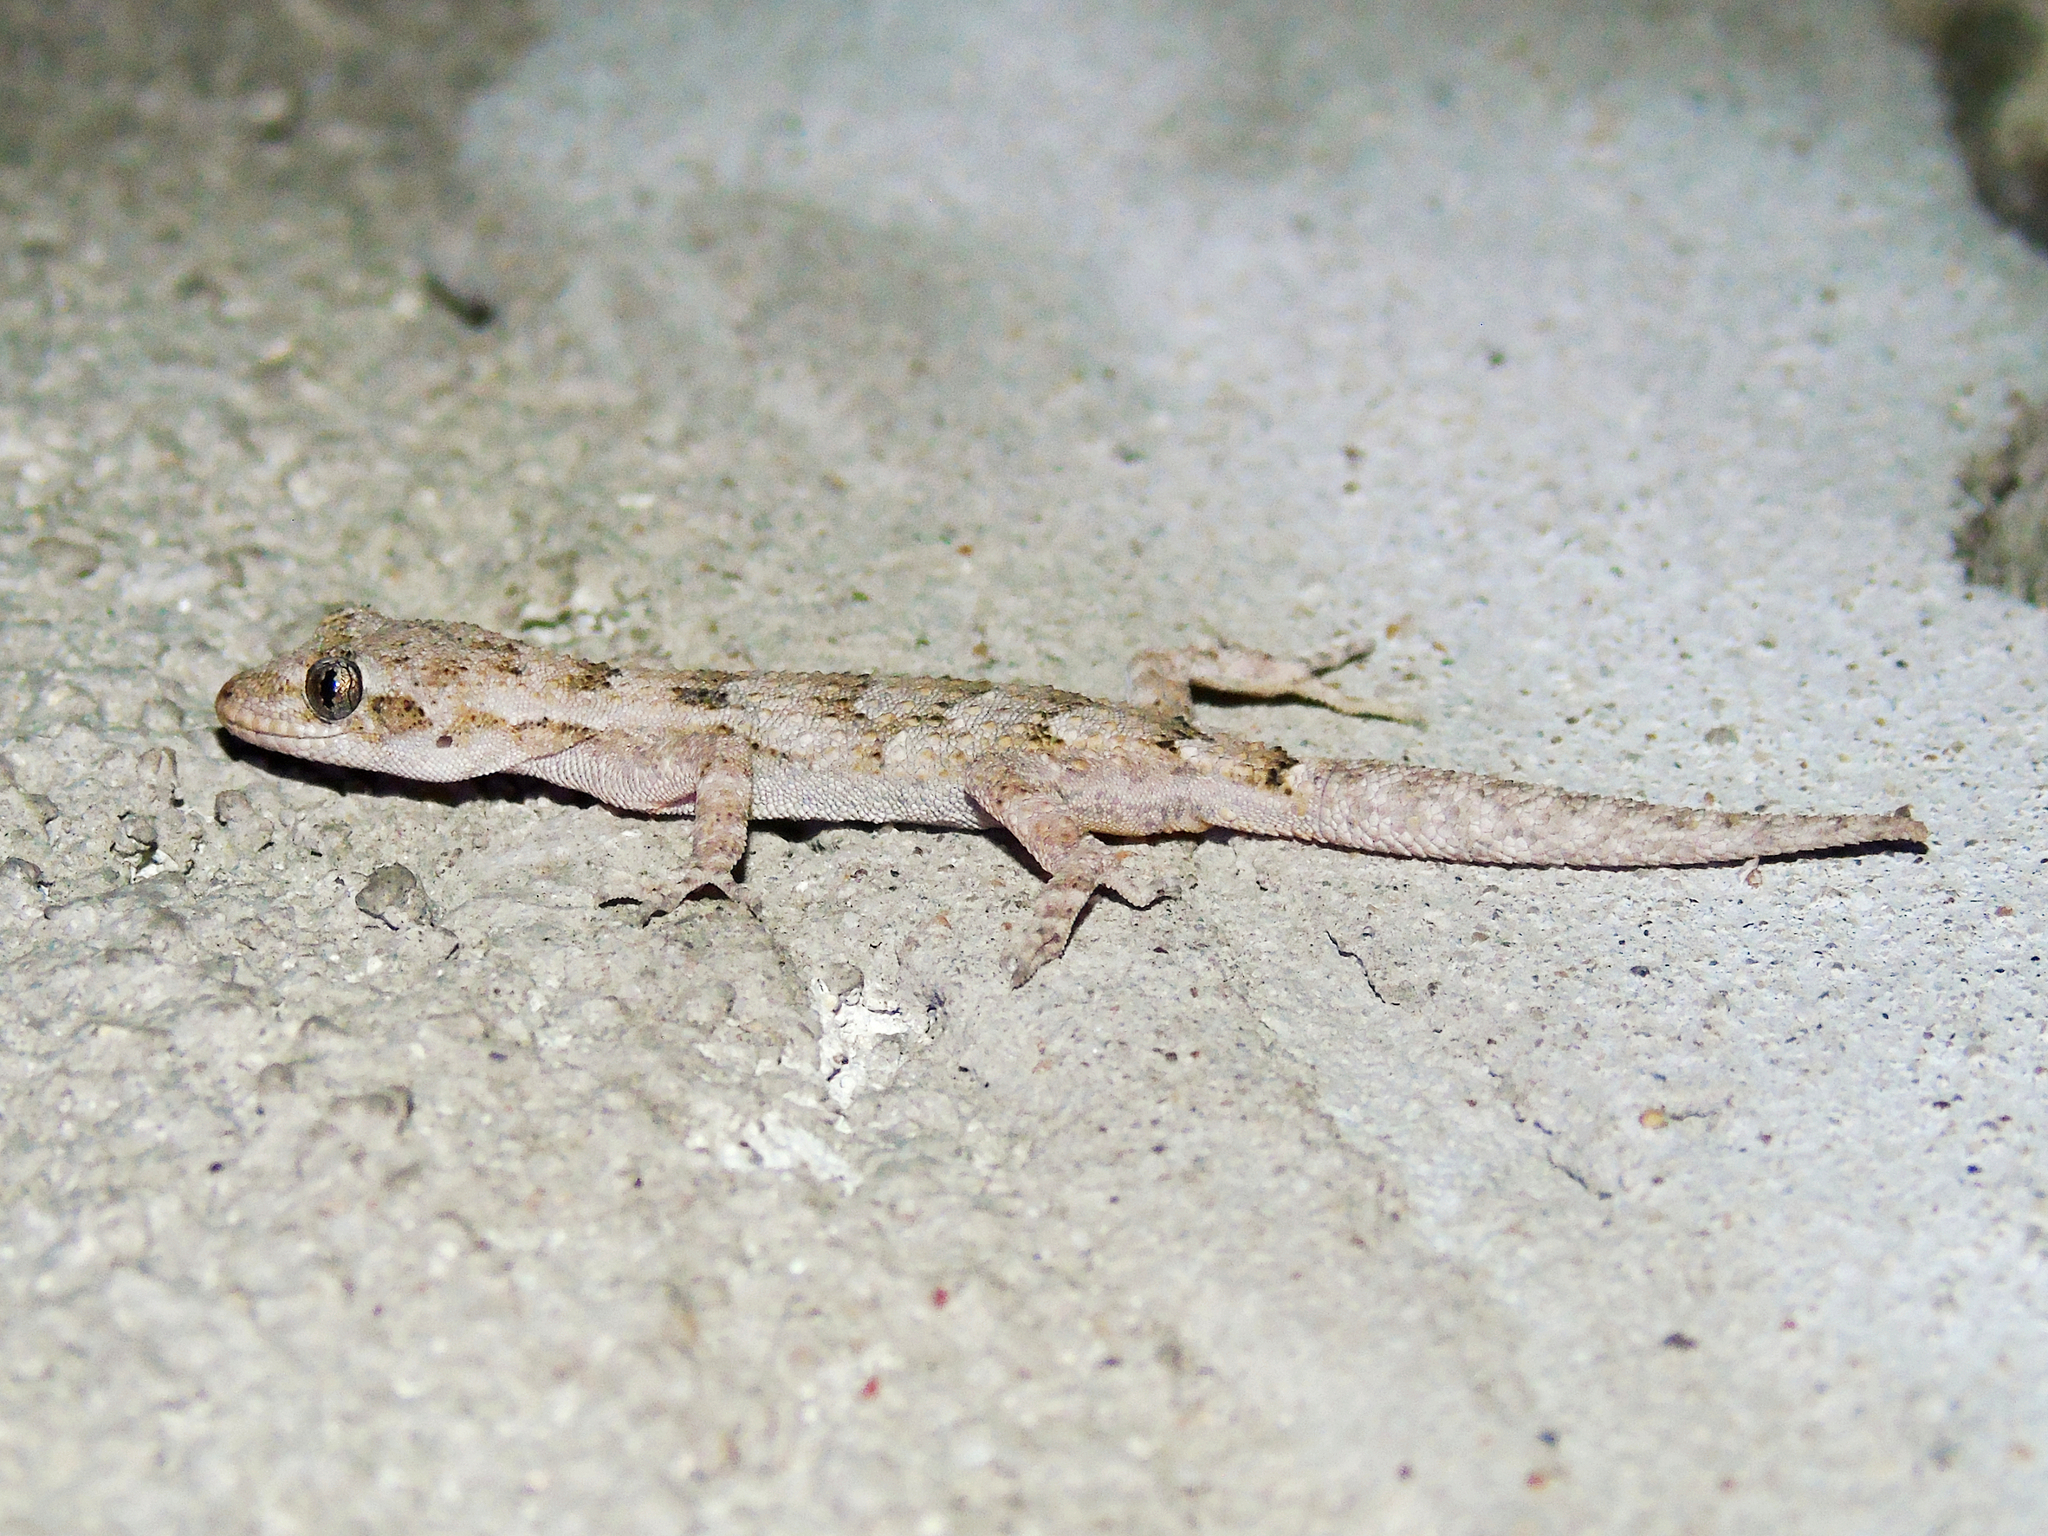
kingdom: Animalia
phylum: Chordata
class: Squamata
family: Gekkonidae
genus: Mediodactylus
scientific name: Mediodactylus danilewskii
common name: Bulgarian bent-toed gecko
